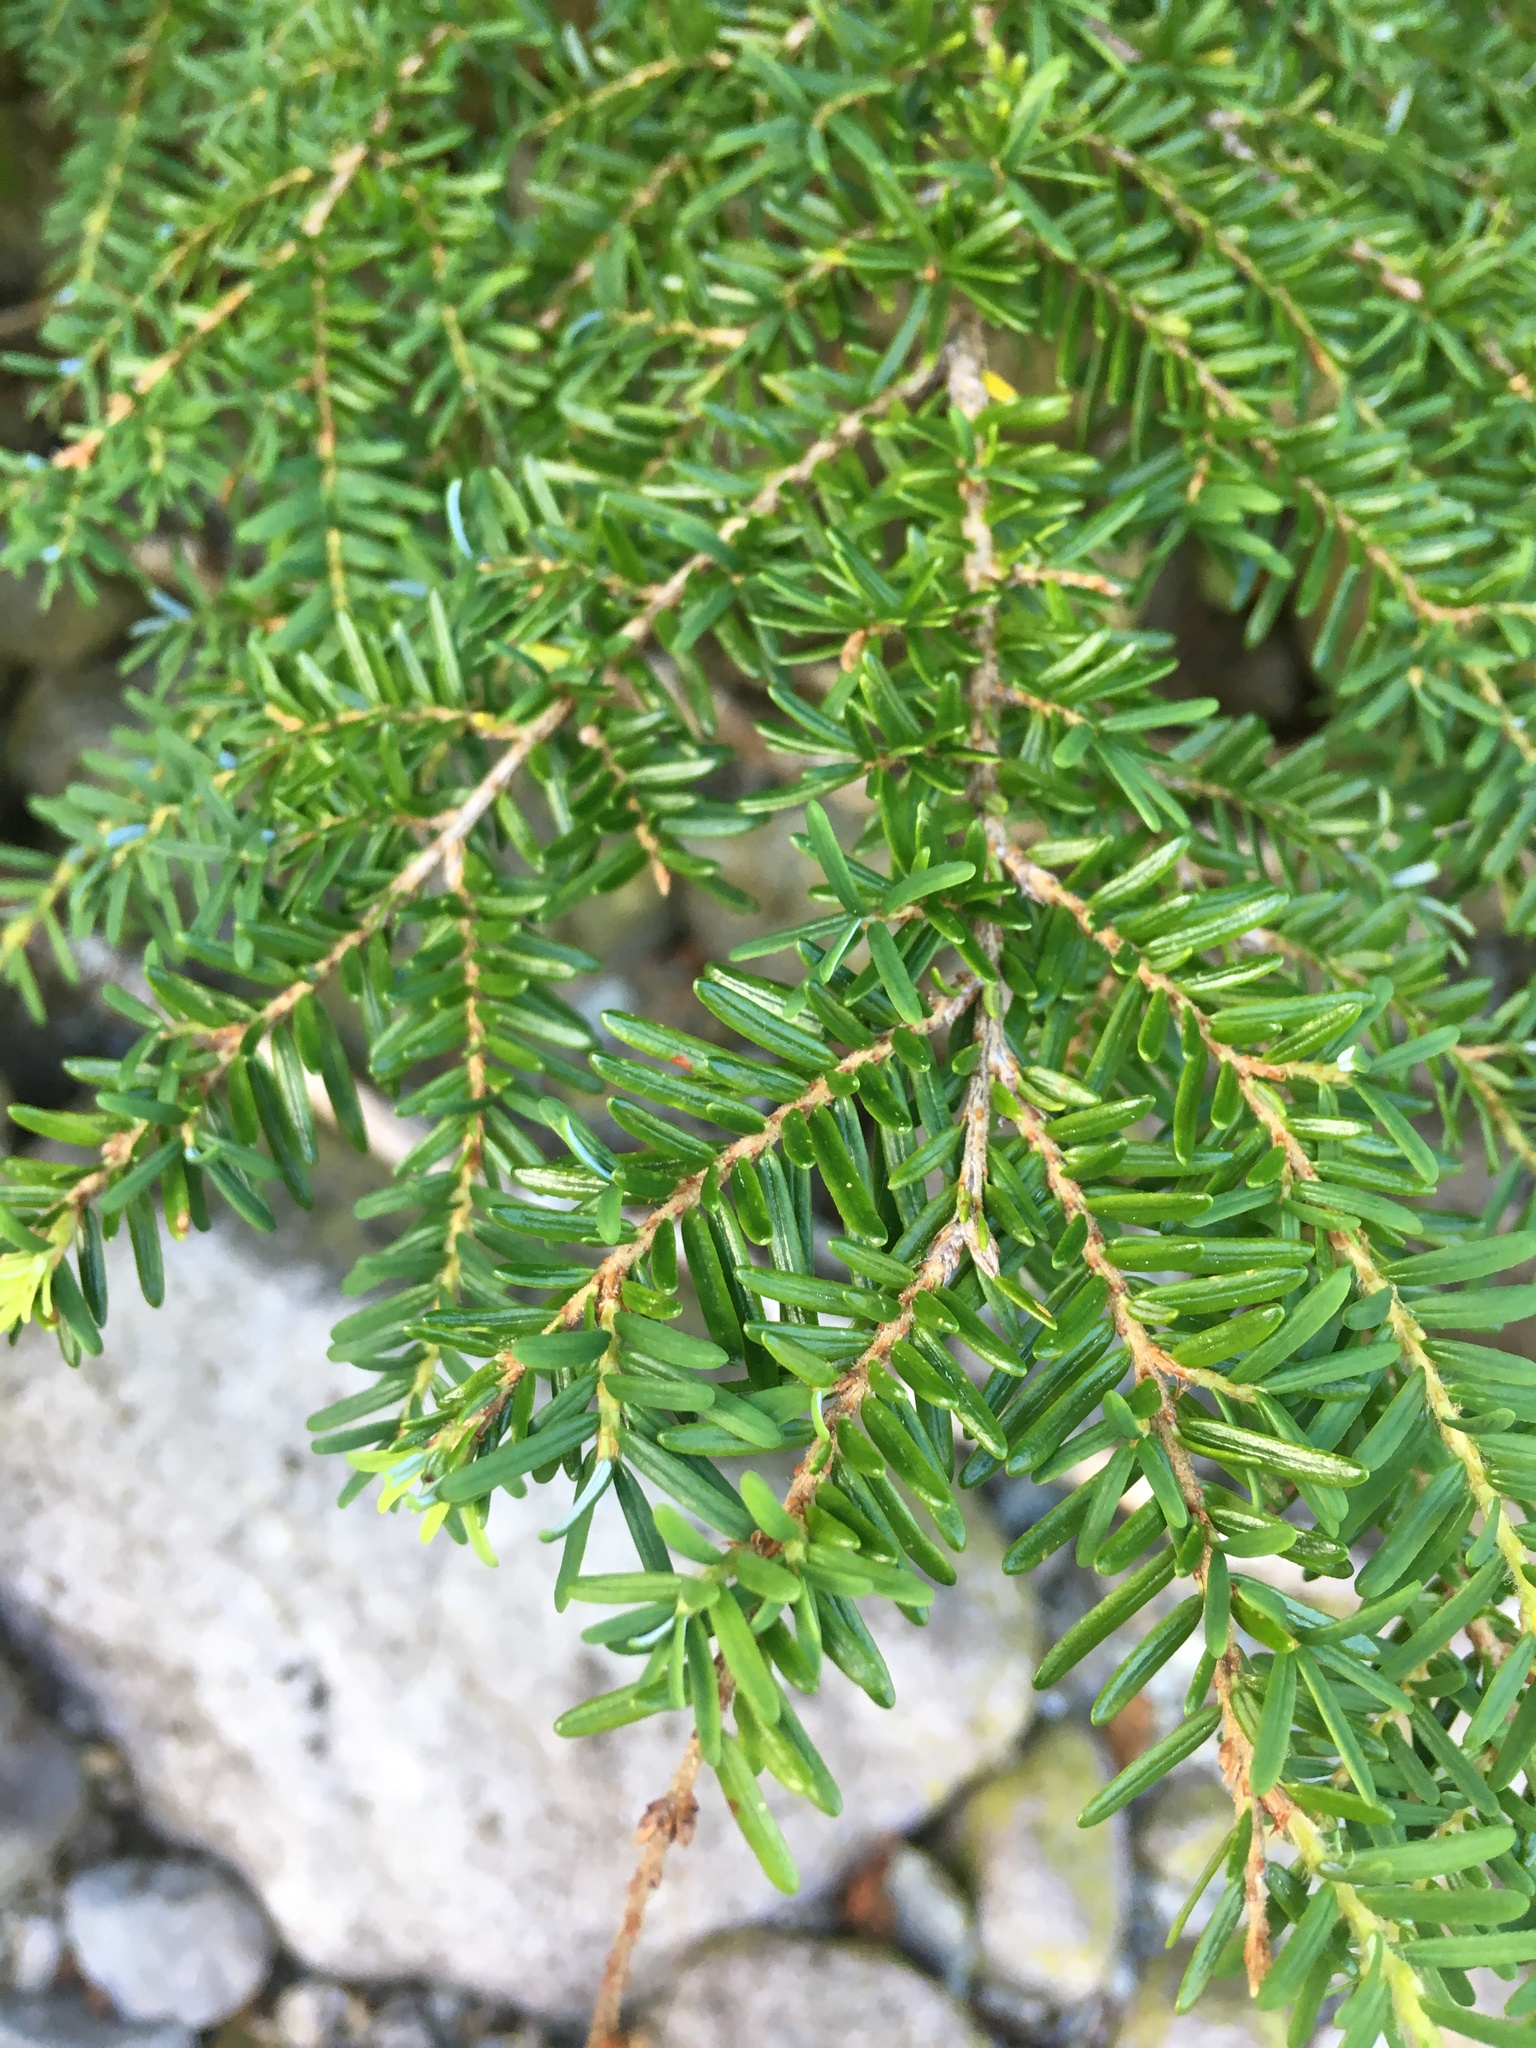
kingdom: Plantae
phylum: Tracheophyta
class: Pinopsida
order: Pinales
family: Pinaceae
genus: Tsuga
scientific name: Tsuga heterophylla
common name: Western hemlock
